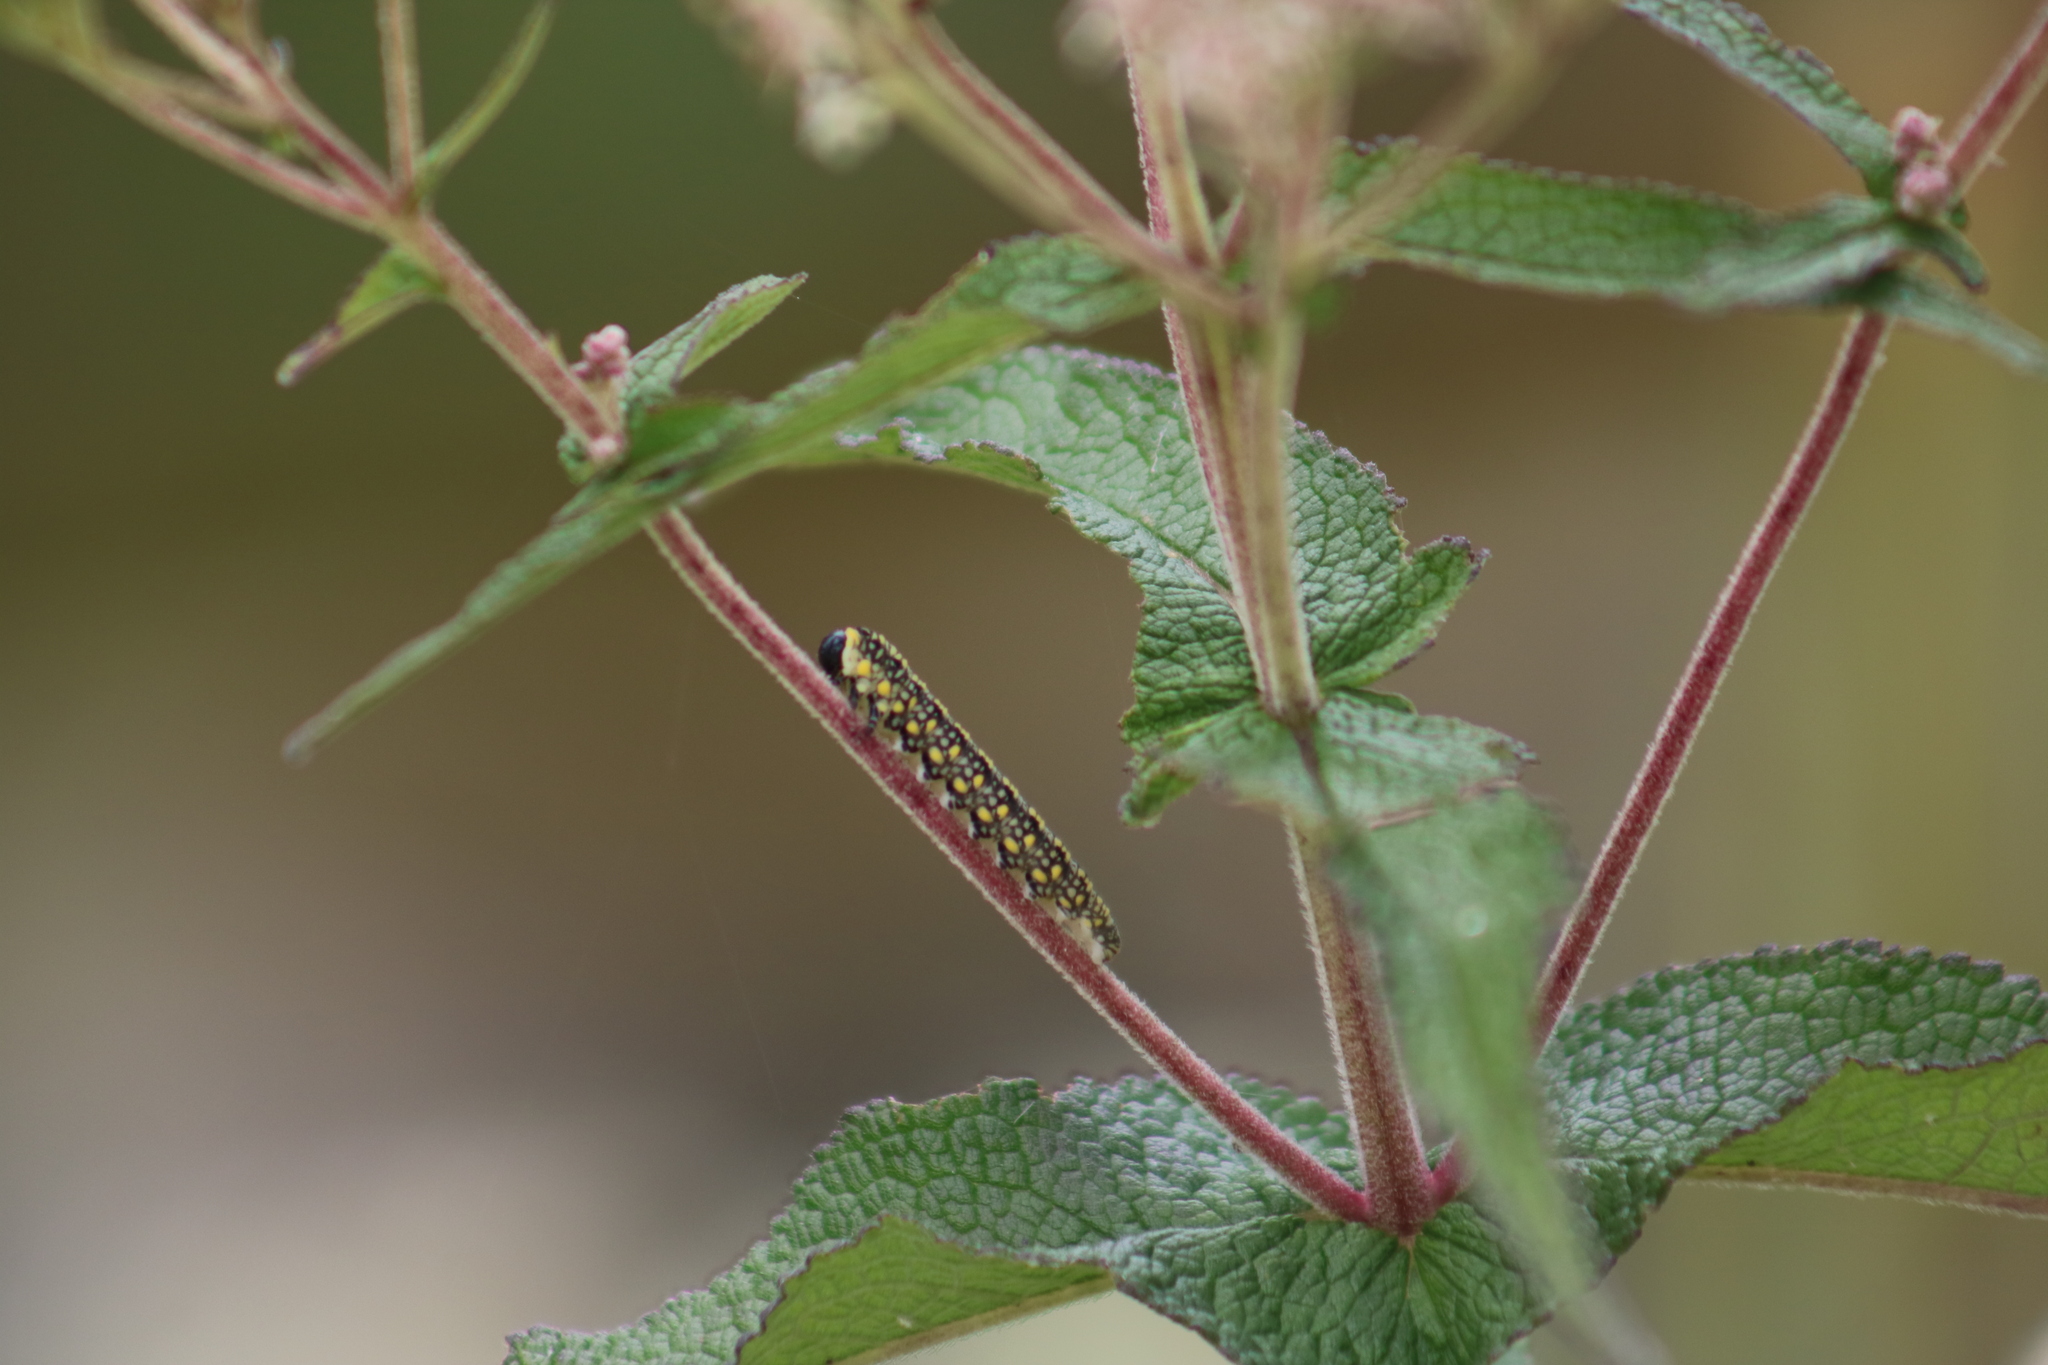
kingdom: Animalia
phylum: Arthropoda
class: Insecta
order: Hymenoptera
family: Diprionidae
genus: Diprion
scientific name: Diprion similis
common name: Pine sawfly
